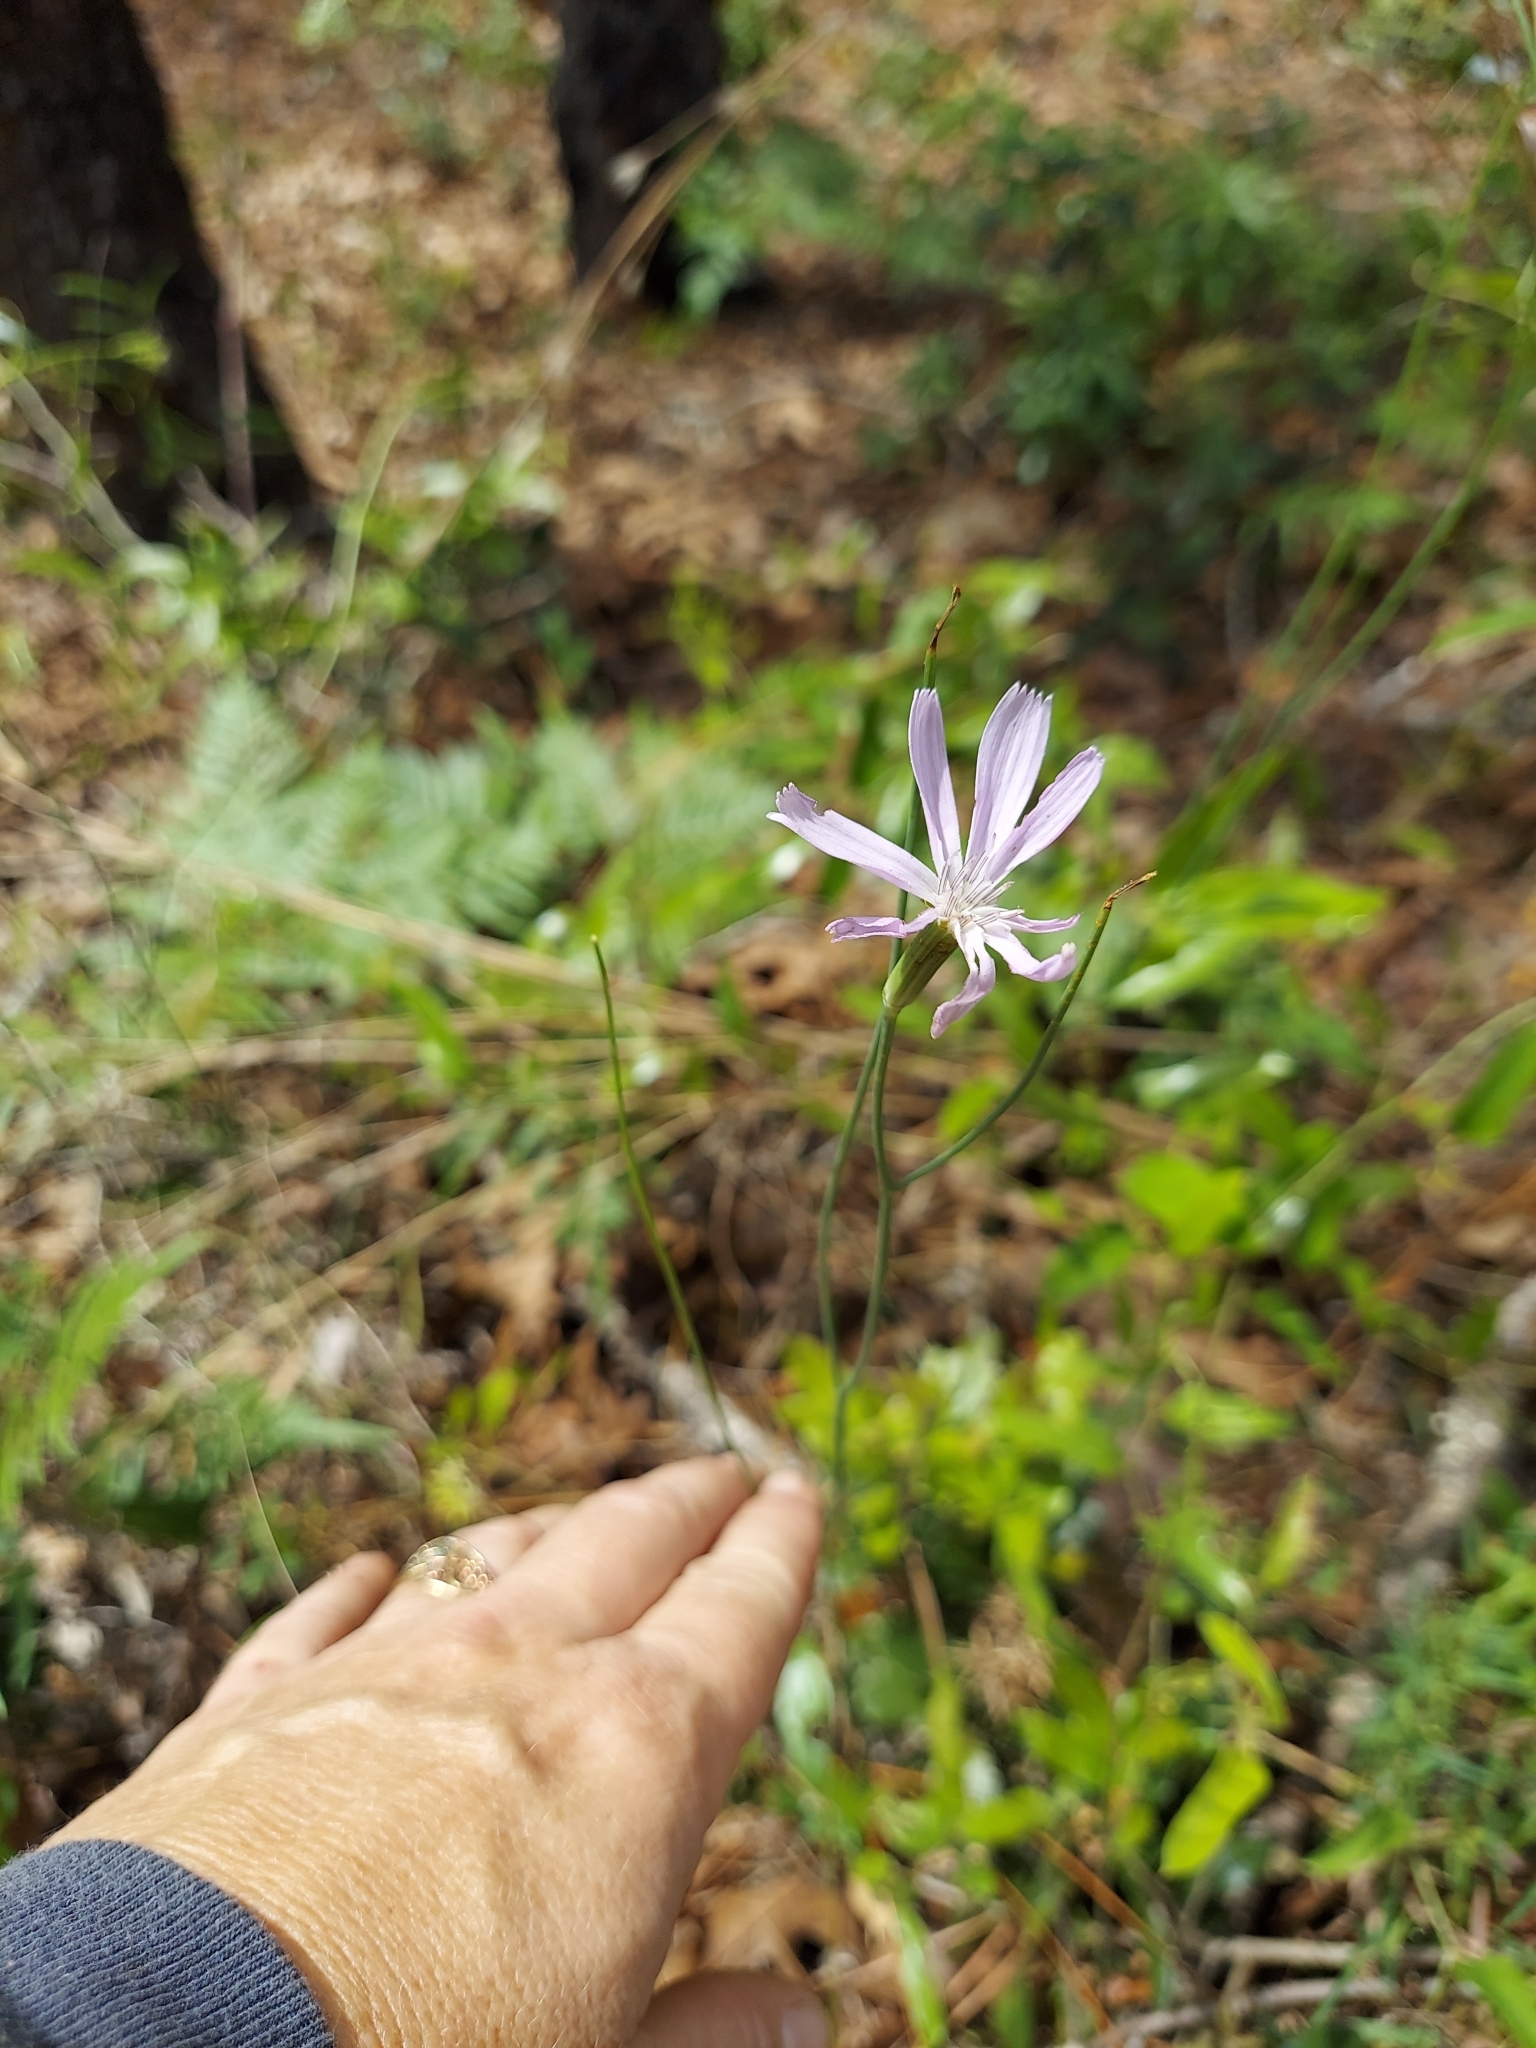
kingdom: Plantae
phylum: Tracheophyta
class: Magnoliopsida
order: Asterales
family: Asteraceae
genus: Lygodesmia
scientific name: Lygodesmia aphylla
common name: Rose-rush
